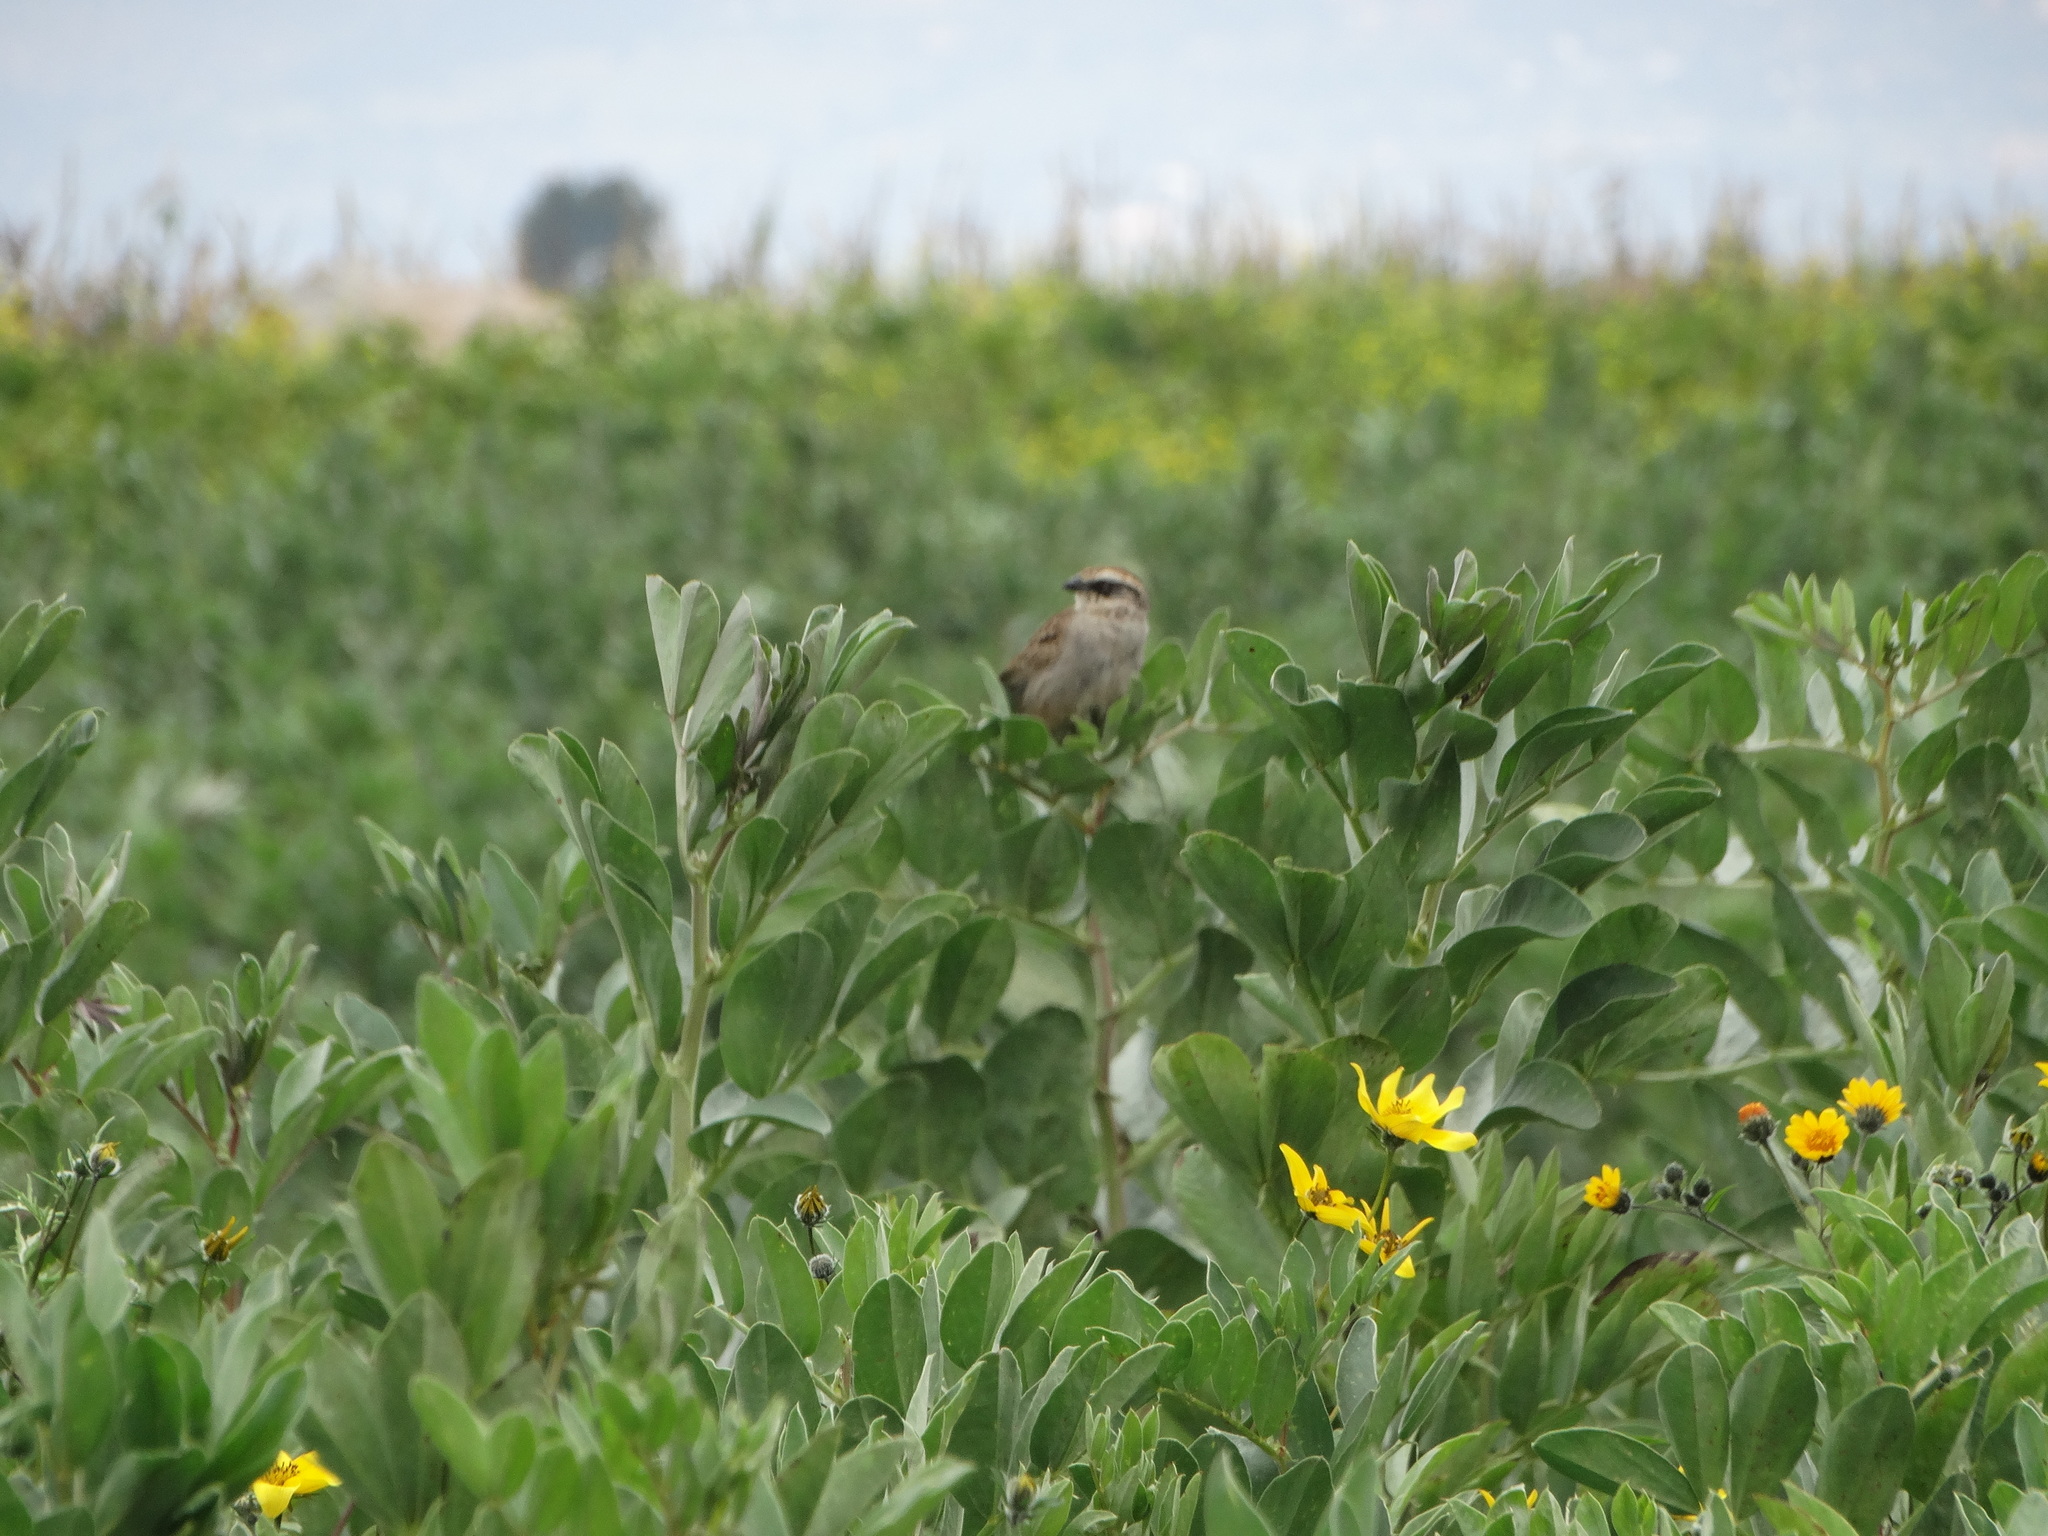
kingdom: Animalia
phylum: Chordata
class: Aves
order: Passeriformes
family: Passerellidae
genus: Oriturus
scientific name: Oriturus superciliosus
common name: Striped sparrow
